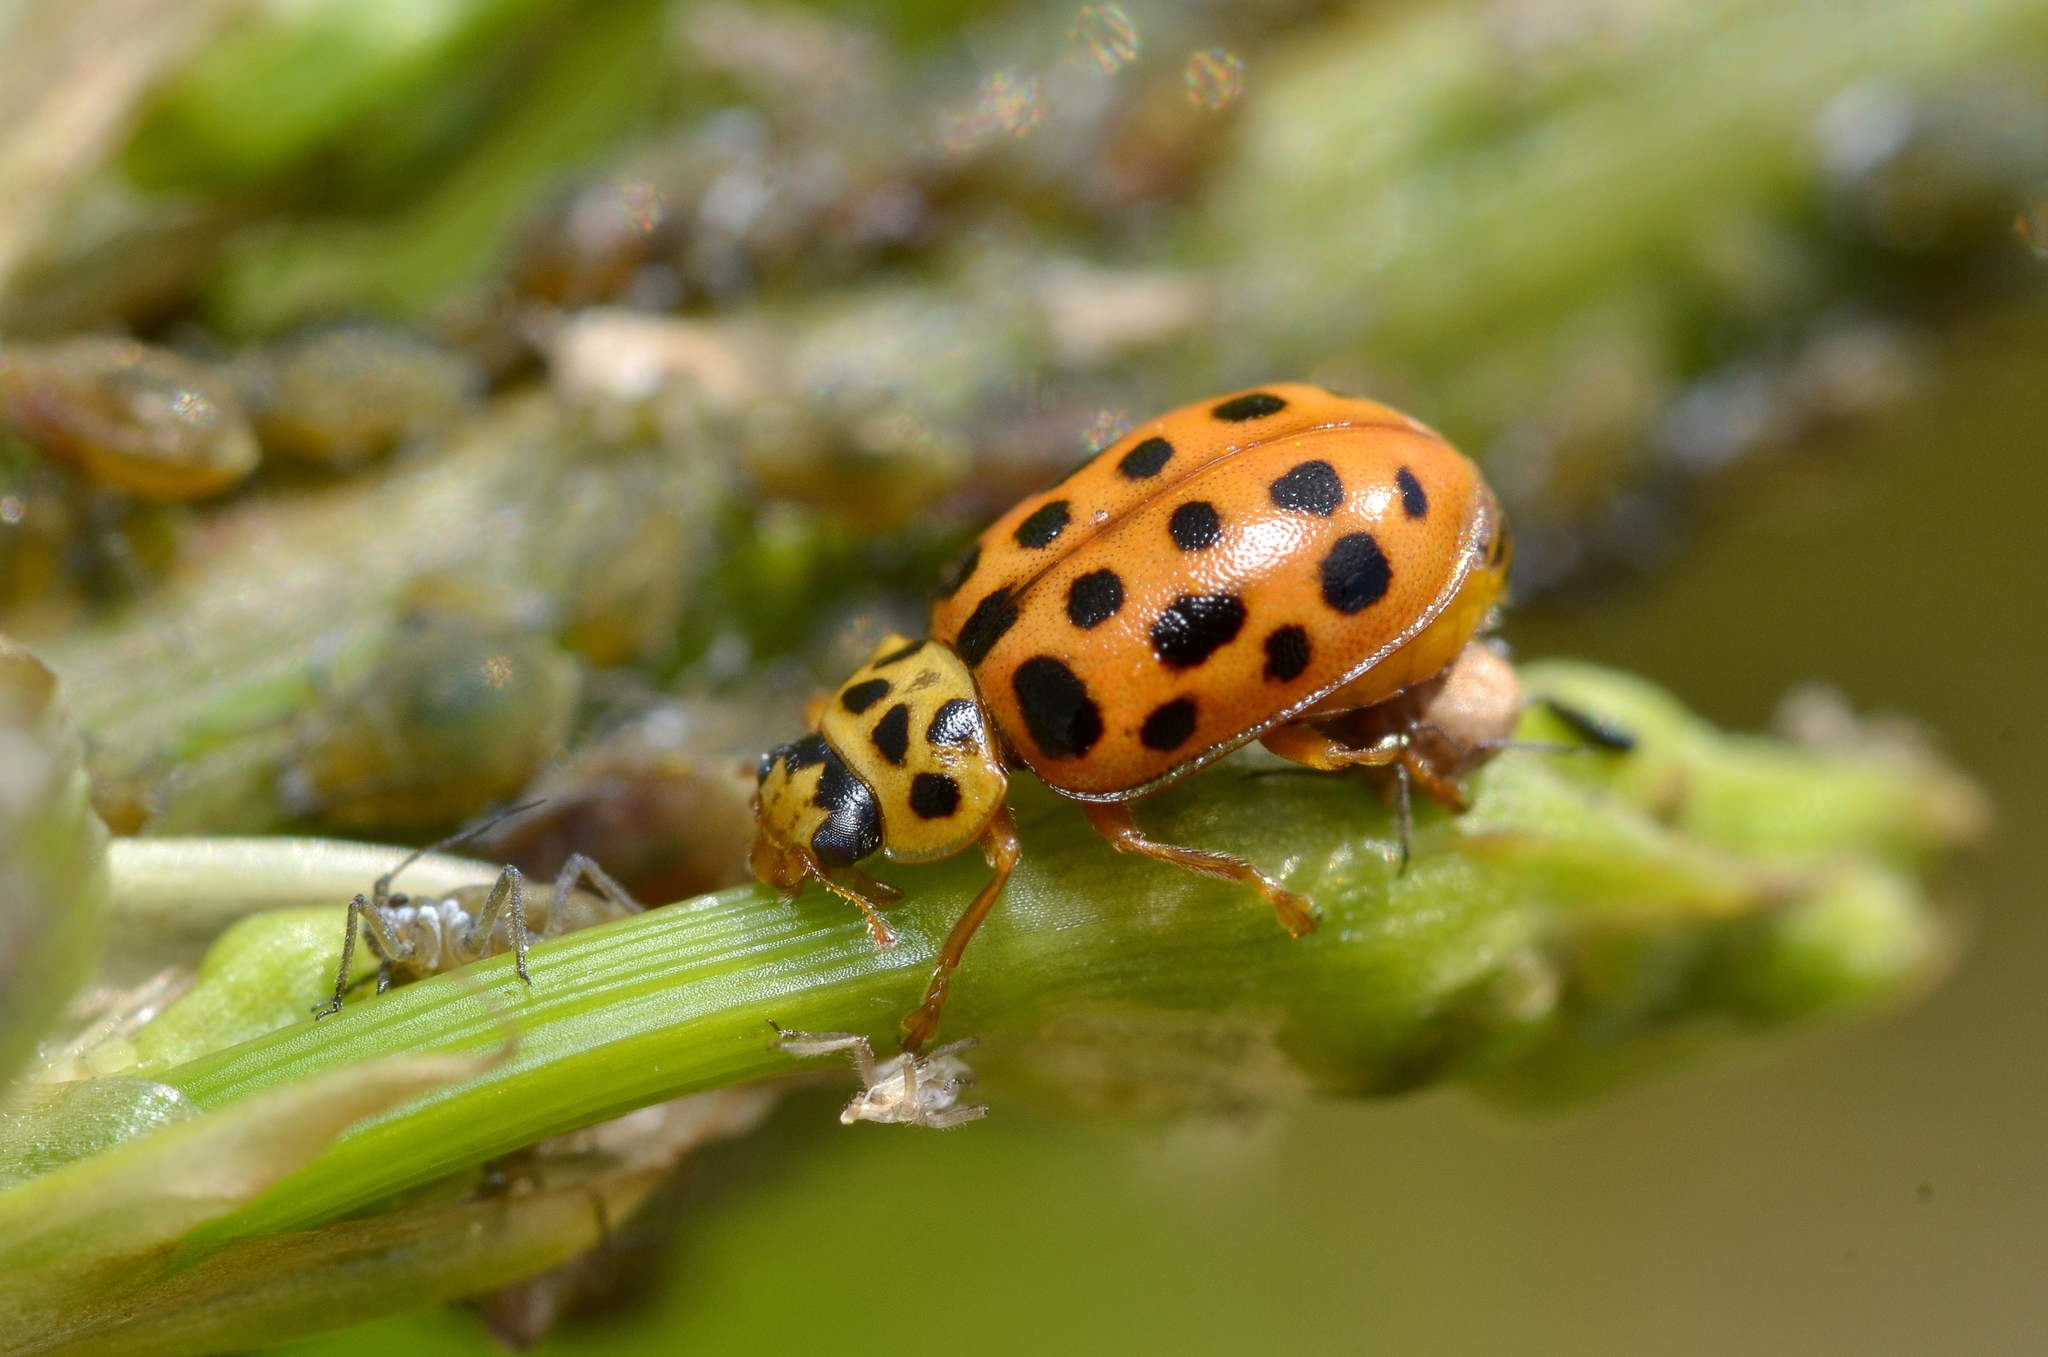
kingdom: Animalia
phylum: Arthropoda
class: Insecta
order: Coleoptera
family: Coccinellidae
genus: Anisosticta
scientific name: Anisosticta novemdecimpunctata
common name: Water ladybird
